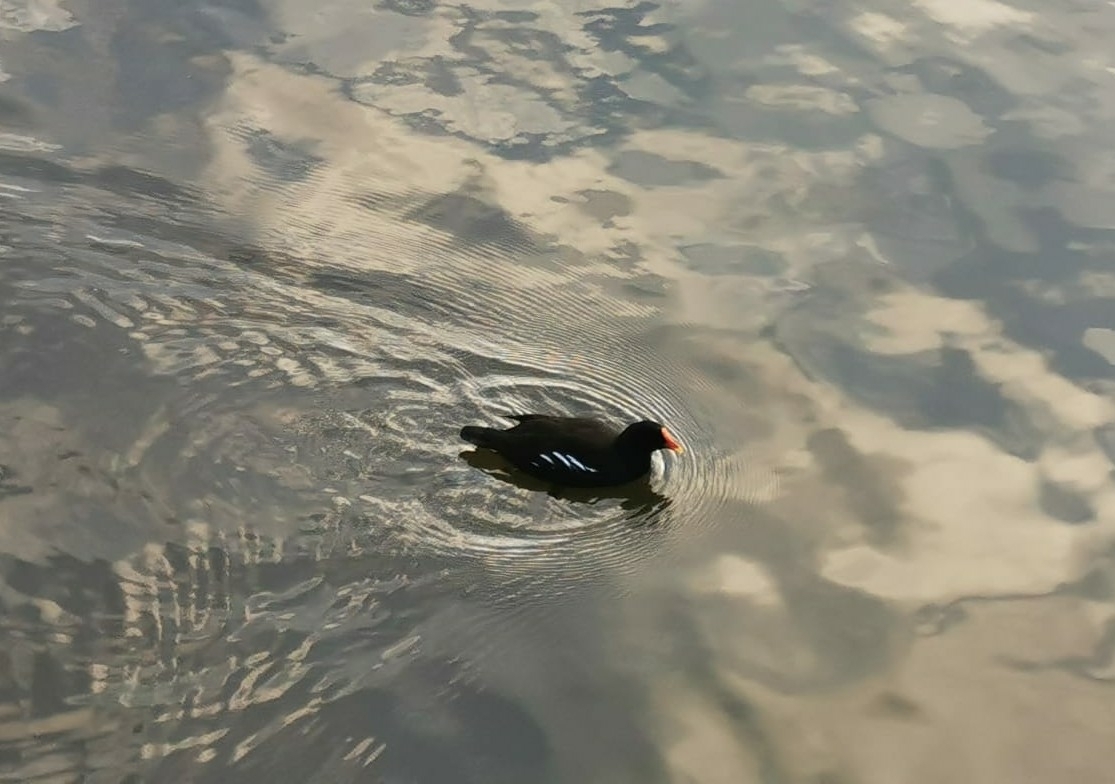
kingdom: Animalia
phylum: Chordata
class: Aves
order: Gruiformes
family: Rallidae
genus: Gallinula
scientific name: Gallinula chloropus
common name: Common moorhen
